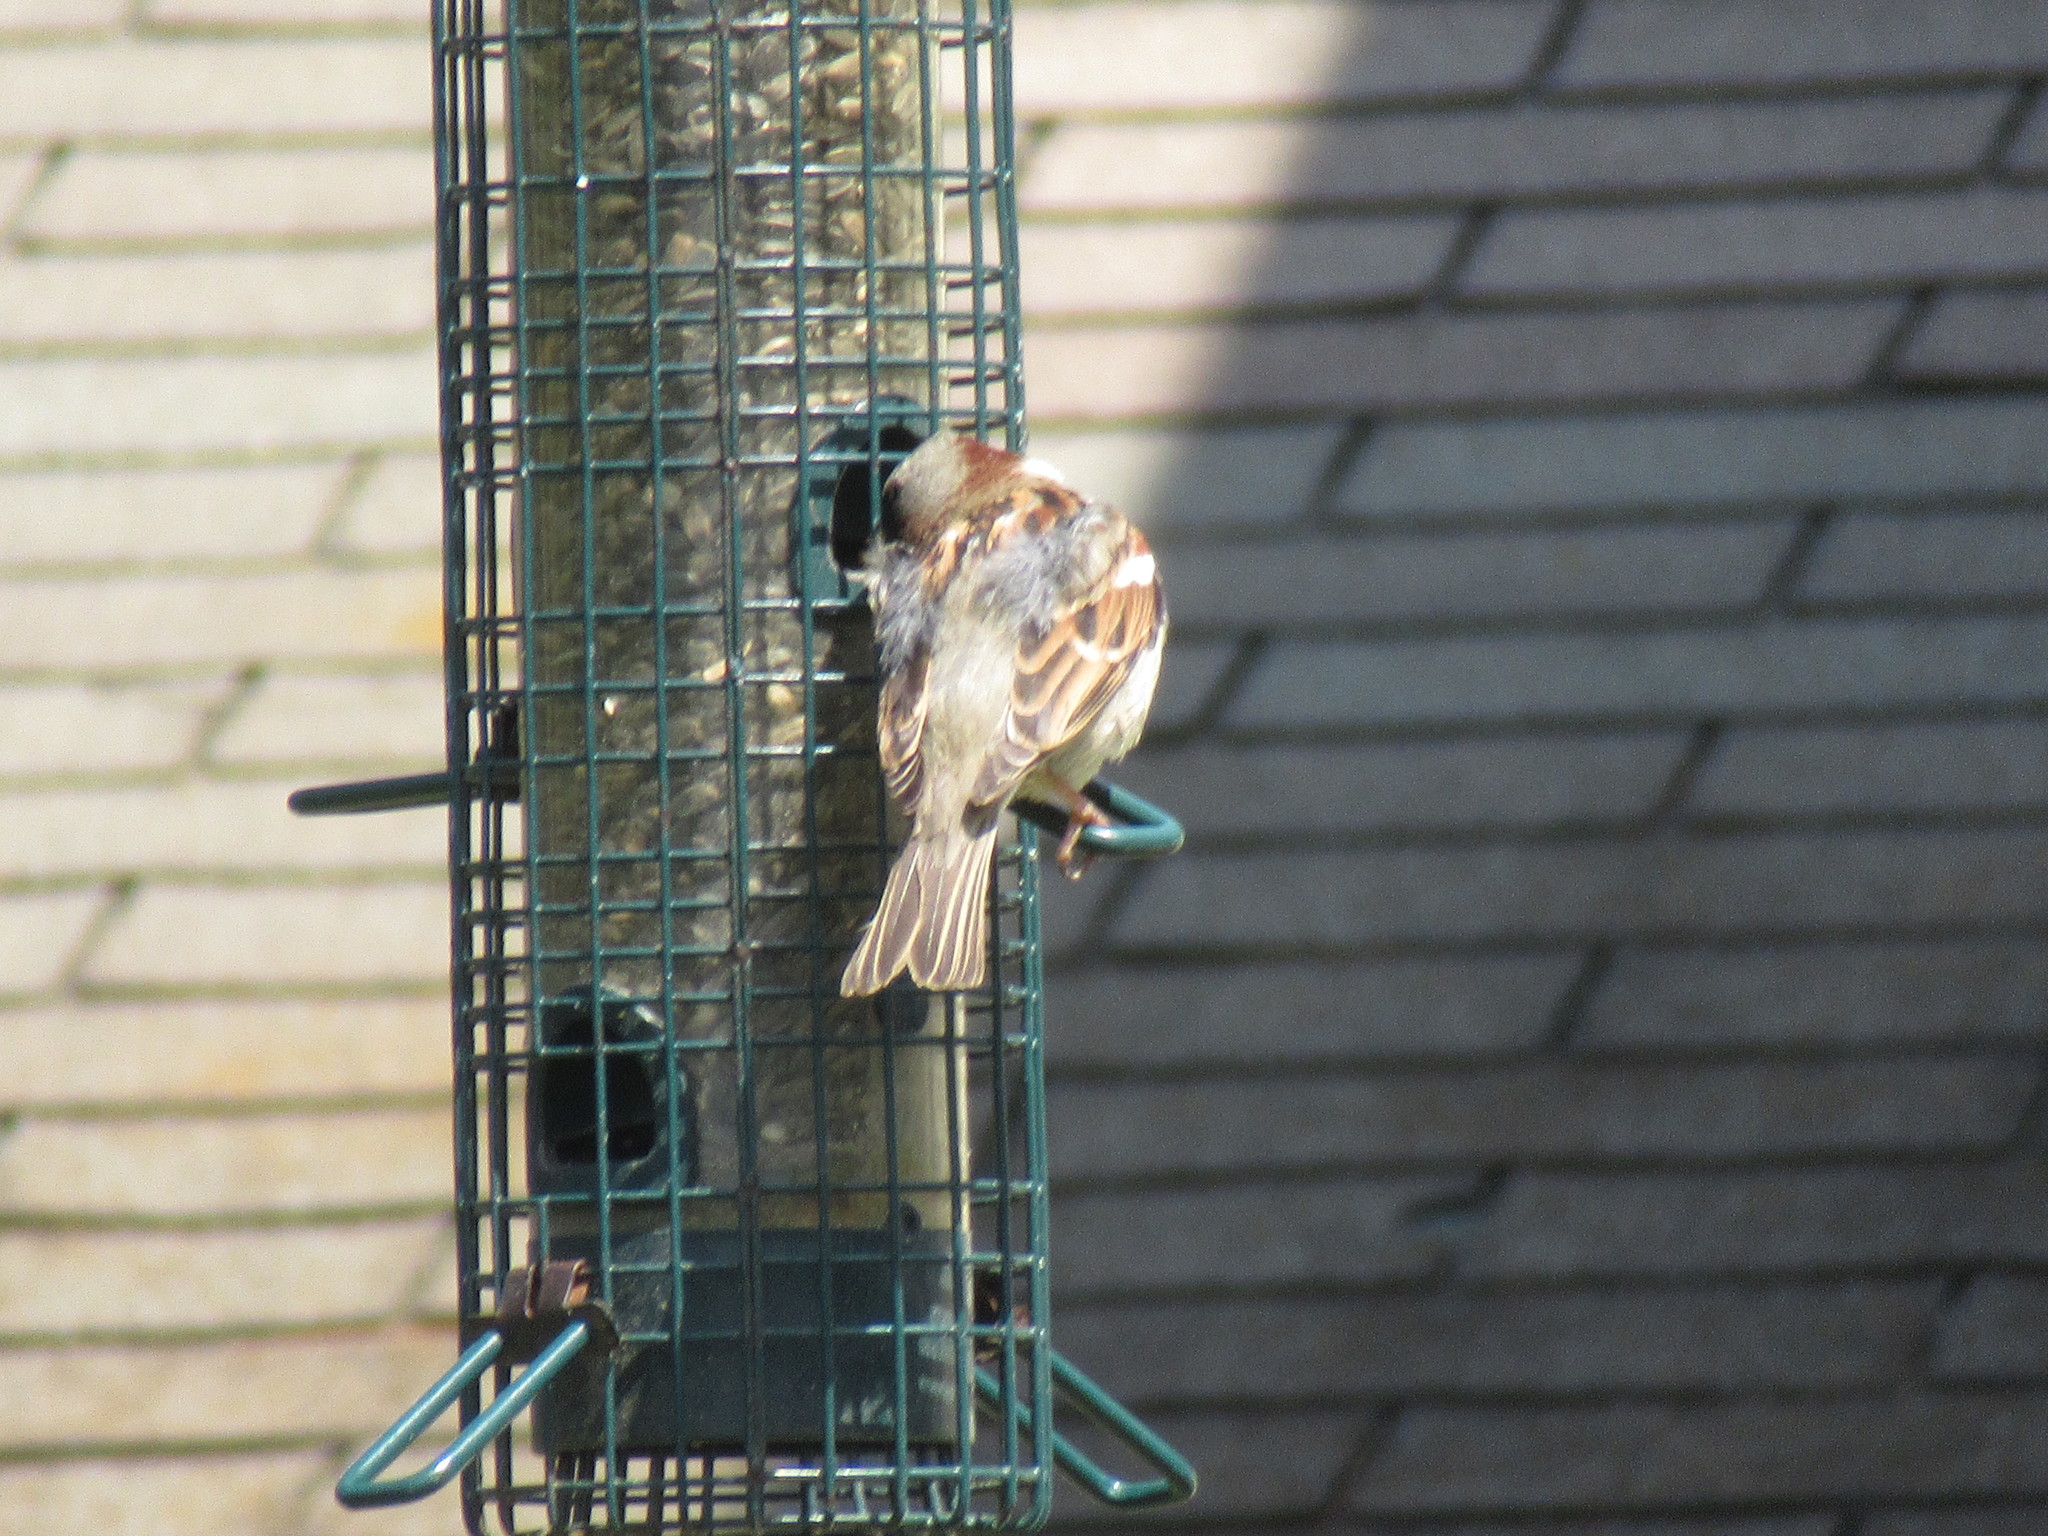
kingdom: Animalia
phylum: Chordata
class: Aves
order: Passeriformes
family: Passeridae
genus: Passer
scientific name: Passer domesticus
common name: House sparrow
